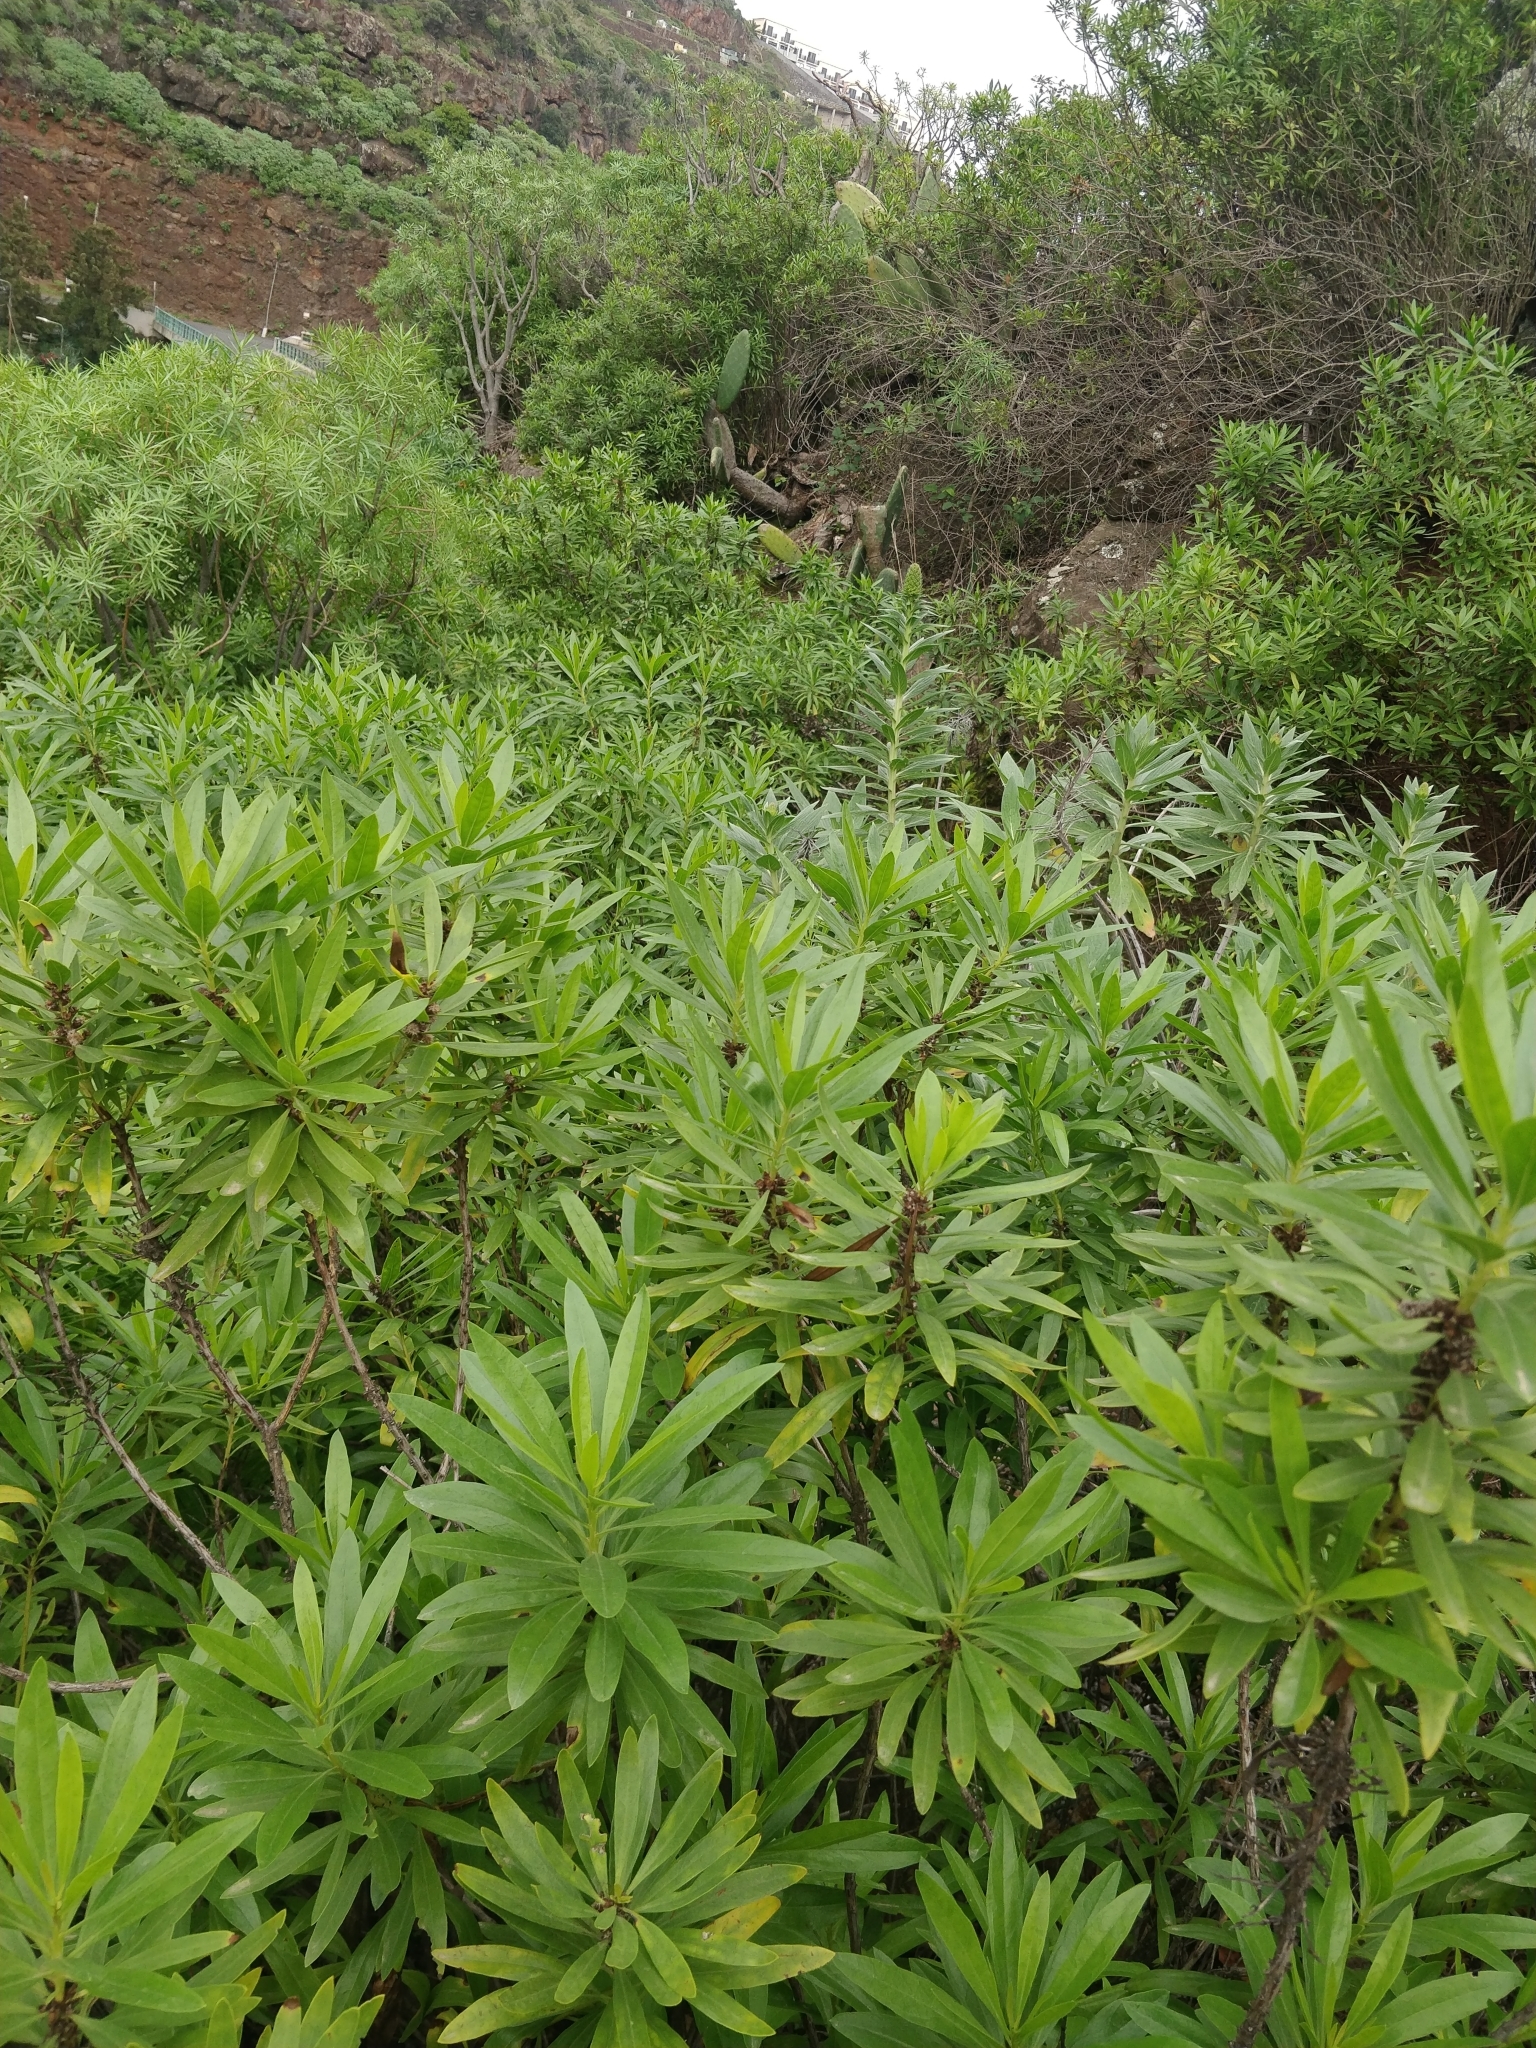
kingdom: Plantae
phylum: Tracheophyta
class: Magnoliopsida
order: Lamiales
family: Plantaginaceae
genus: Globularia
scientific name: Globularia salicina
